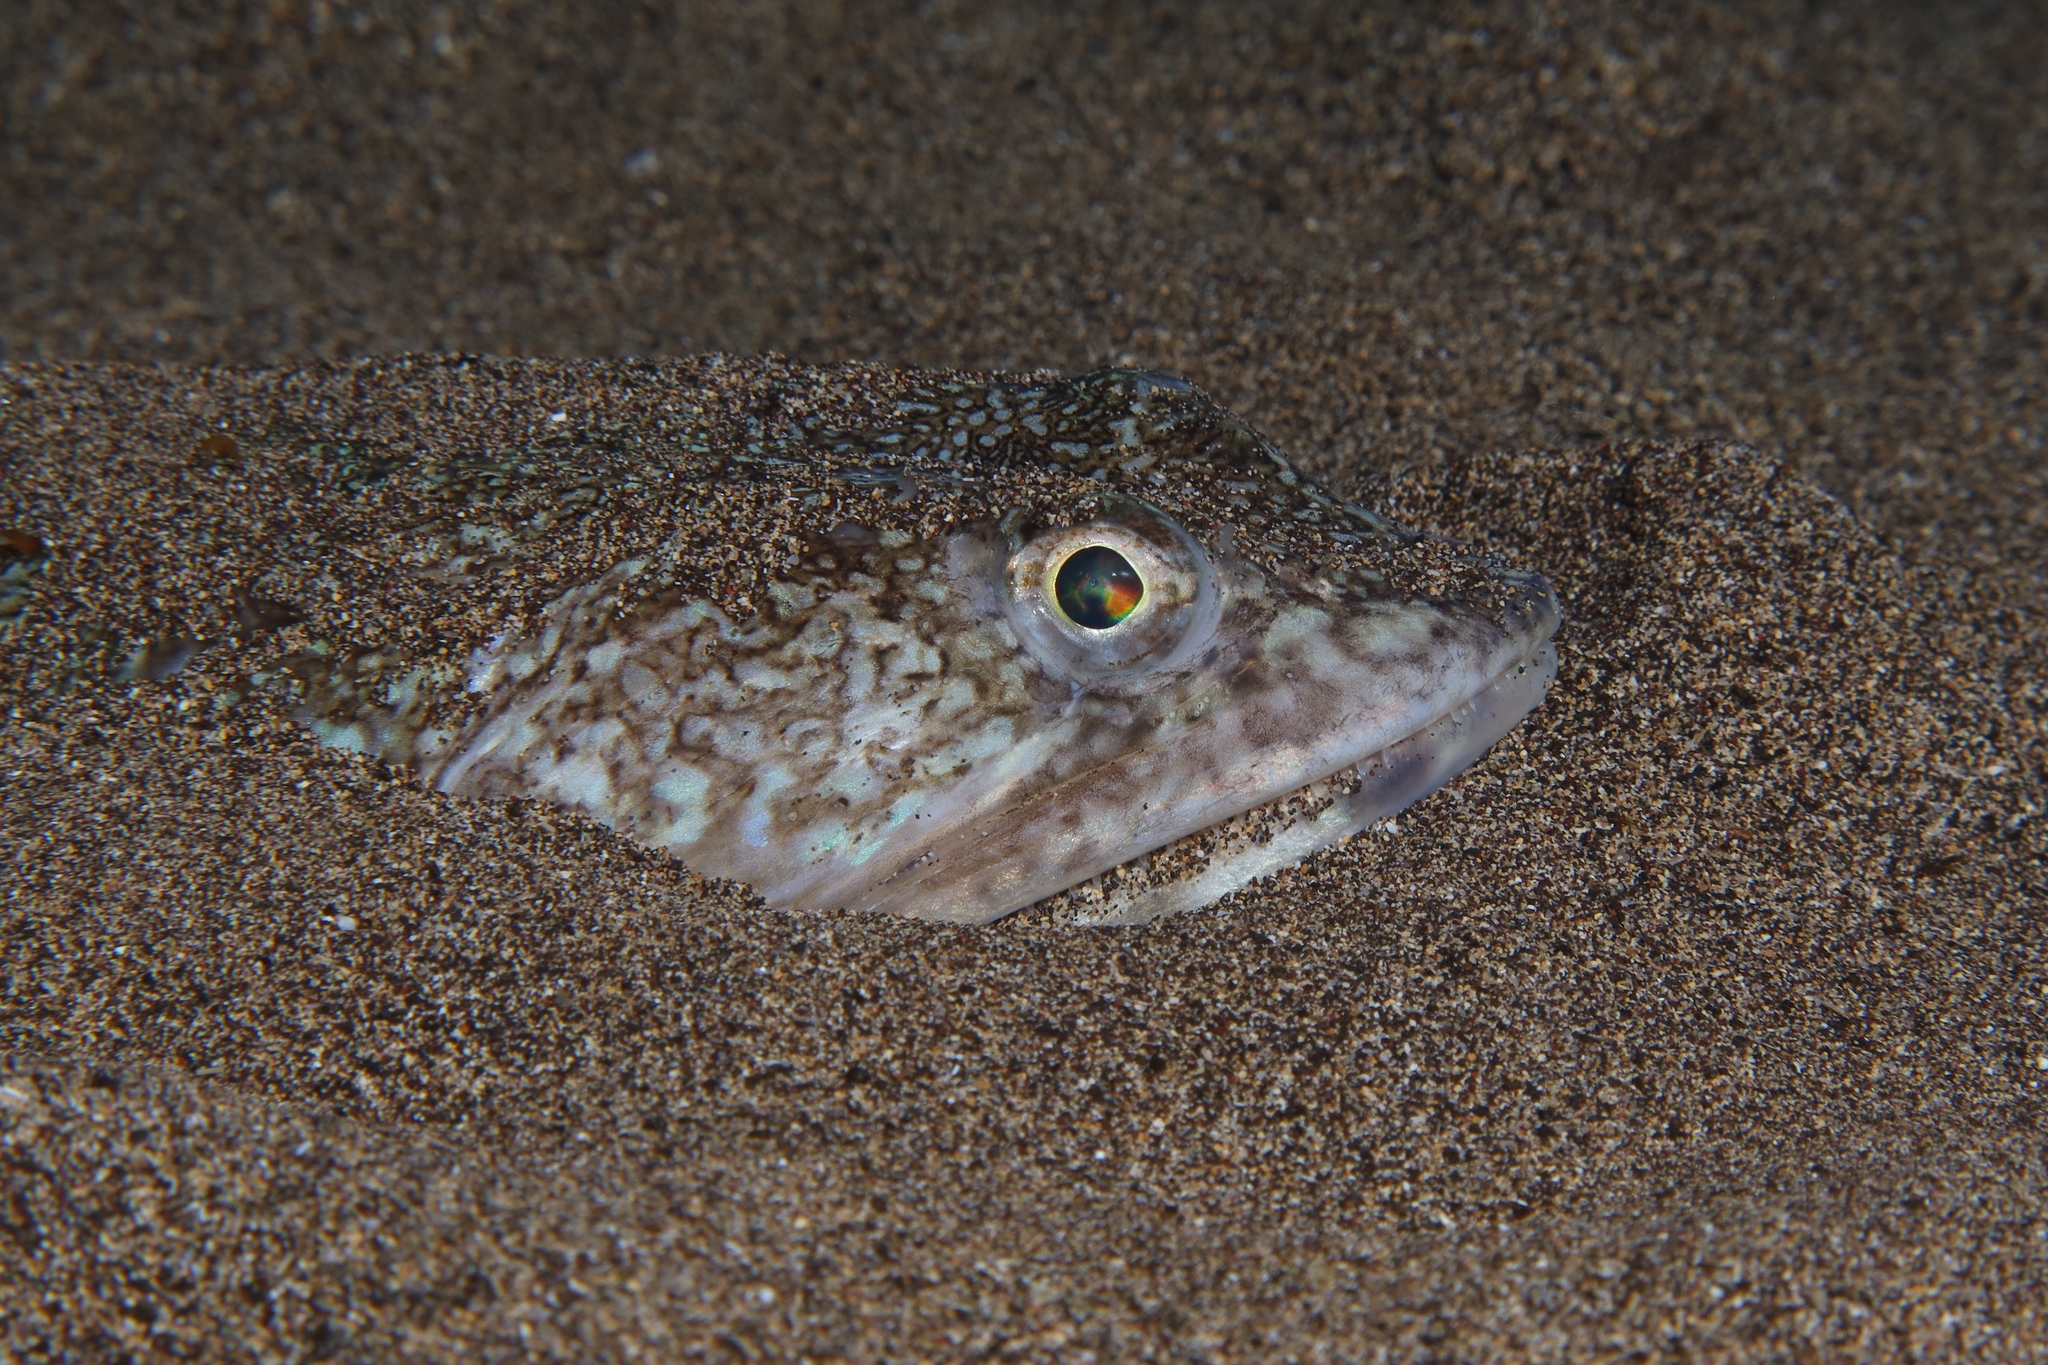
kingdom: Animalia
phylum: Chordata
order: Aulopiformes
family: Synodontidae
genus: Synodus
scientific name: Synodus saurus
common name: Atlantic lizardfish
